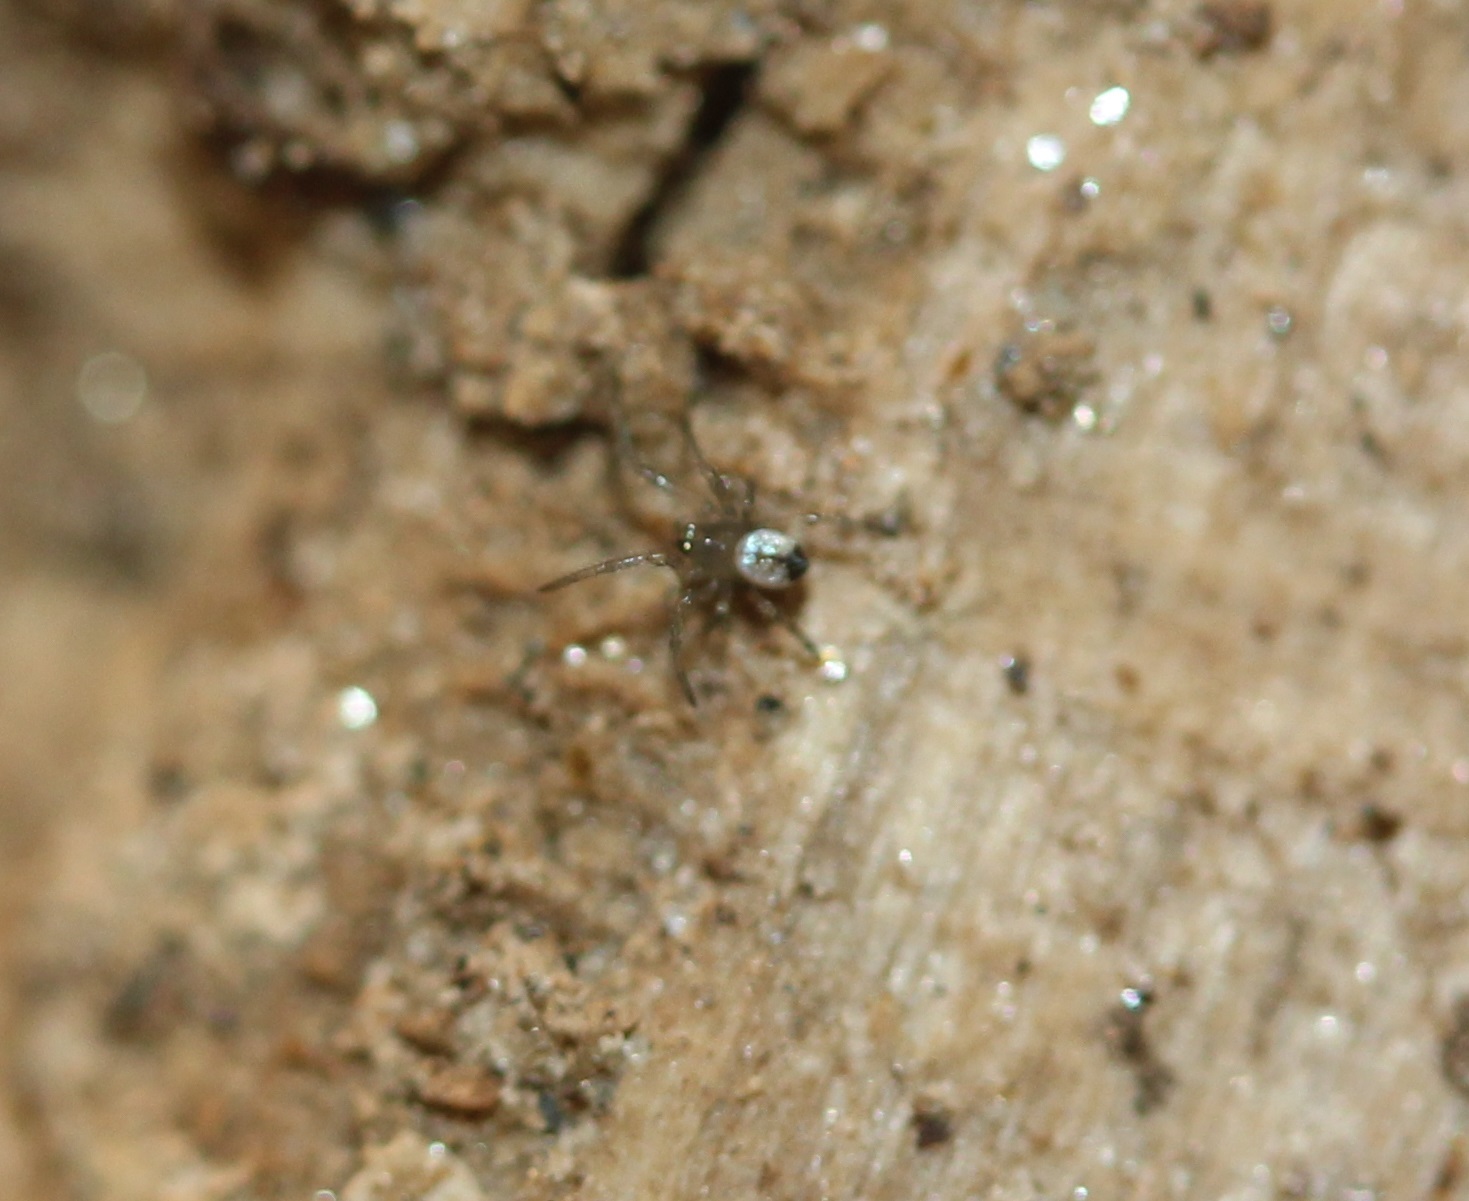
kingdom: Animalia
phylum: Arthropoda
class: Arachnida
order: Araneae
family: Tetragnathidae
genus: Leucauge
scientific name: Leucauge venusta
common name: Longjawed orb weavers
